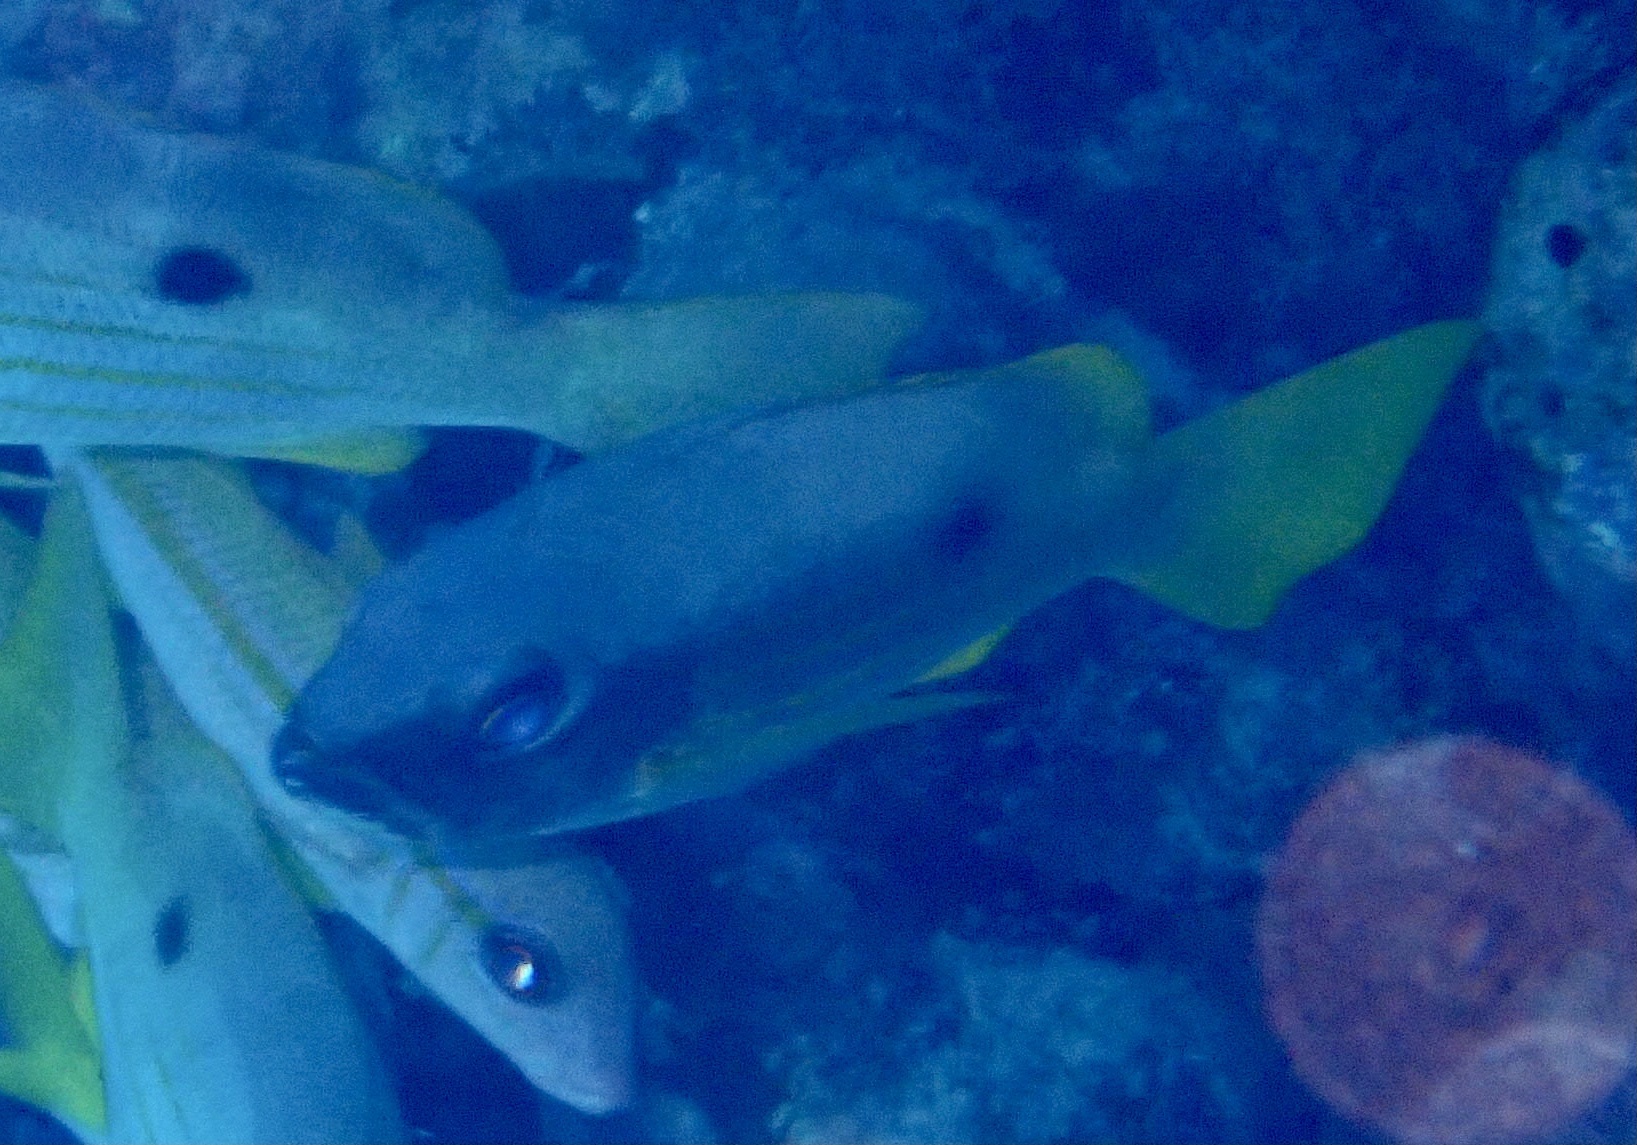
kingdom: Animalia
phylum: Chordata
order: Perciformes
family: Lutjanidae
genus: Lutjanus
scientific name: Lutjanus ehrenbergii
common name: Blackspot snapper
